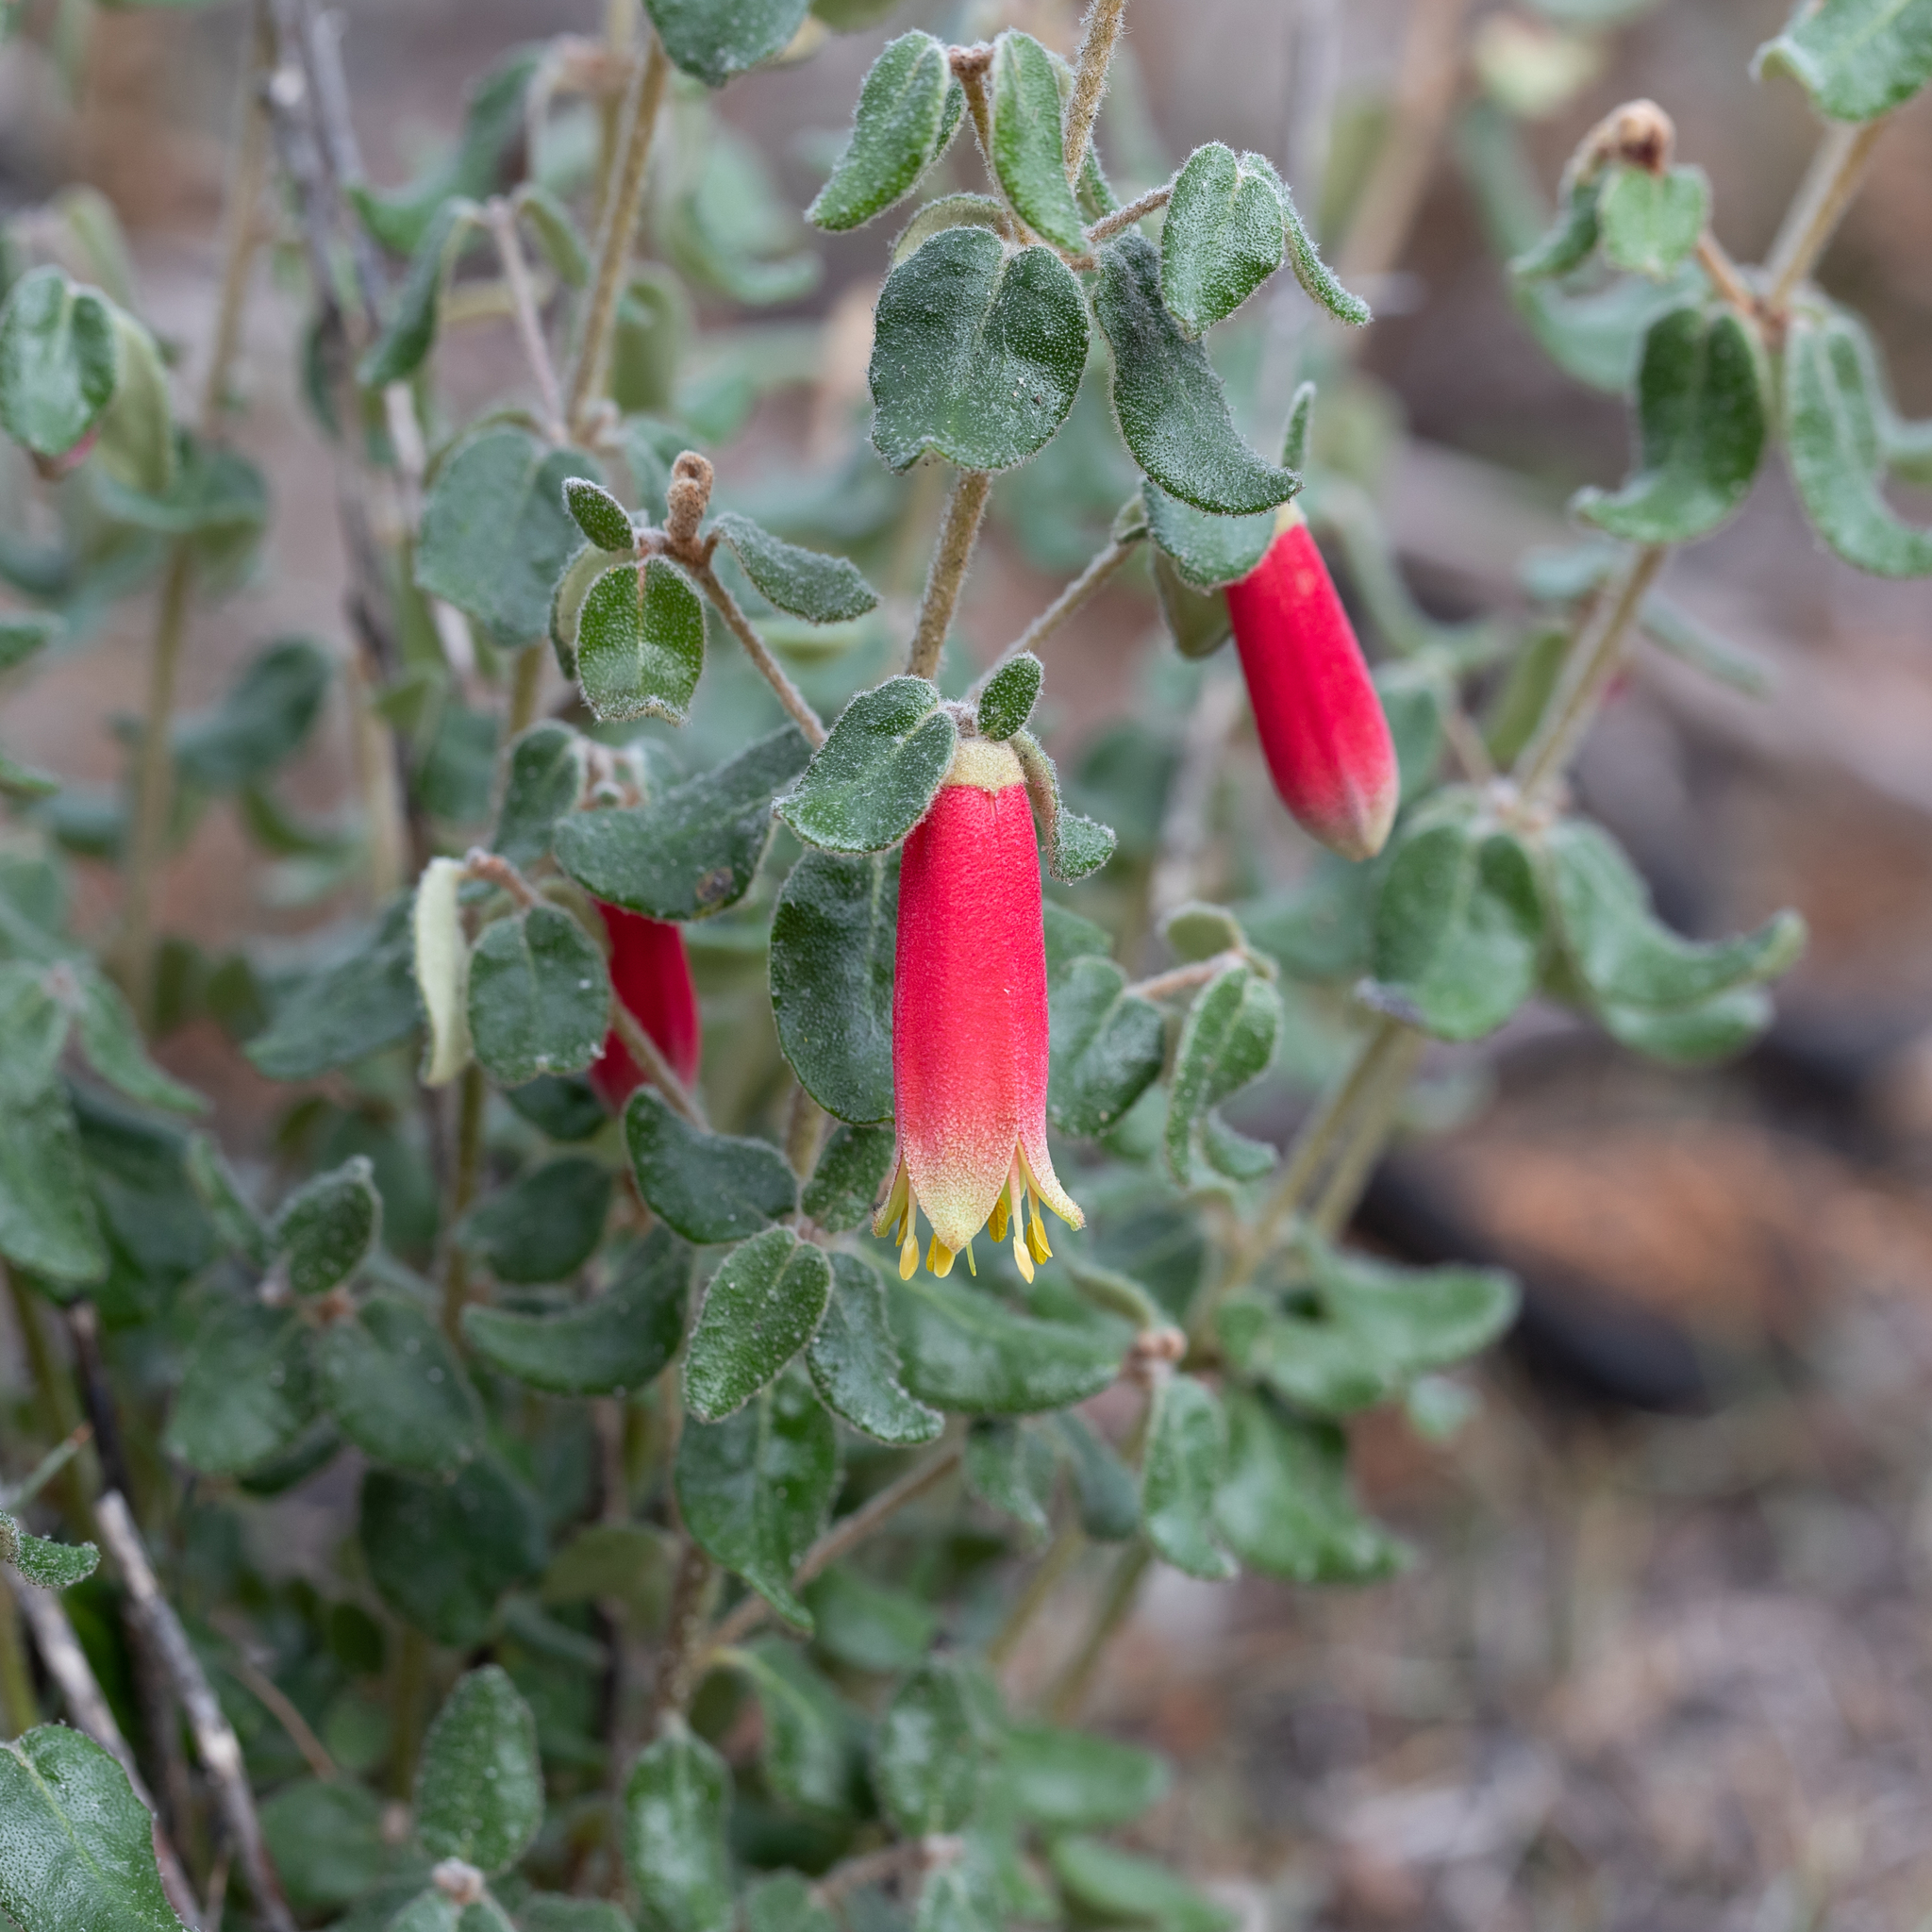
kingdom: Plantae
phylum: Tracheophyta
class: Magnoliopsida
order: Sapindales
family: Rutaceae
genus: Correa
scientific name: Correa reflexa
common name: Common correa
